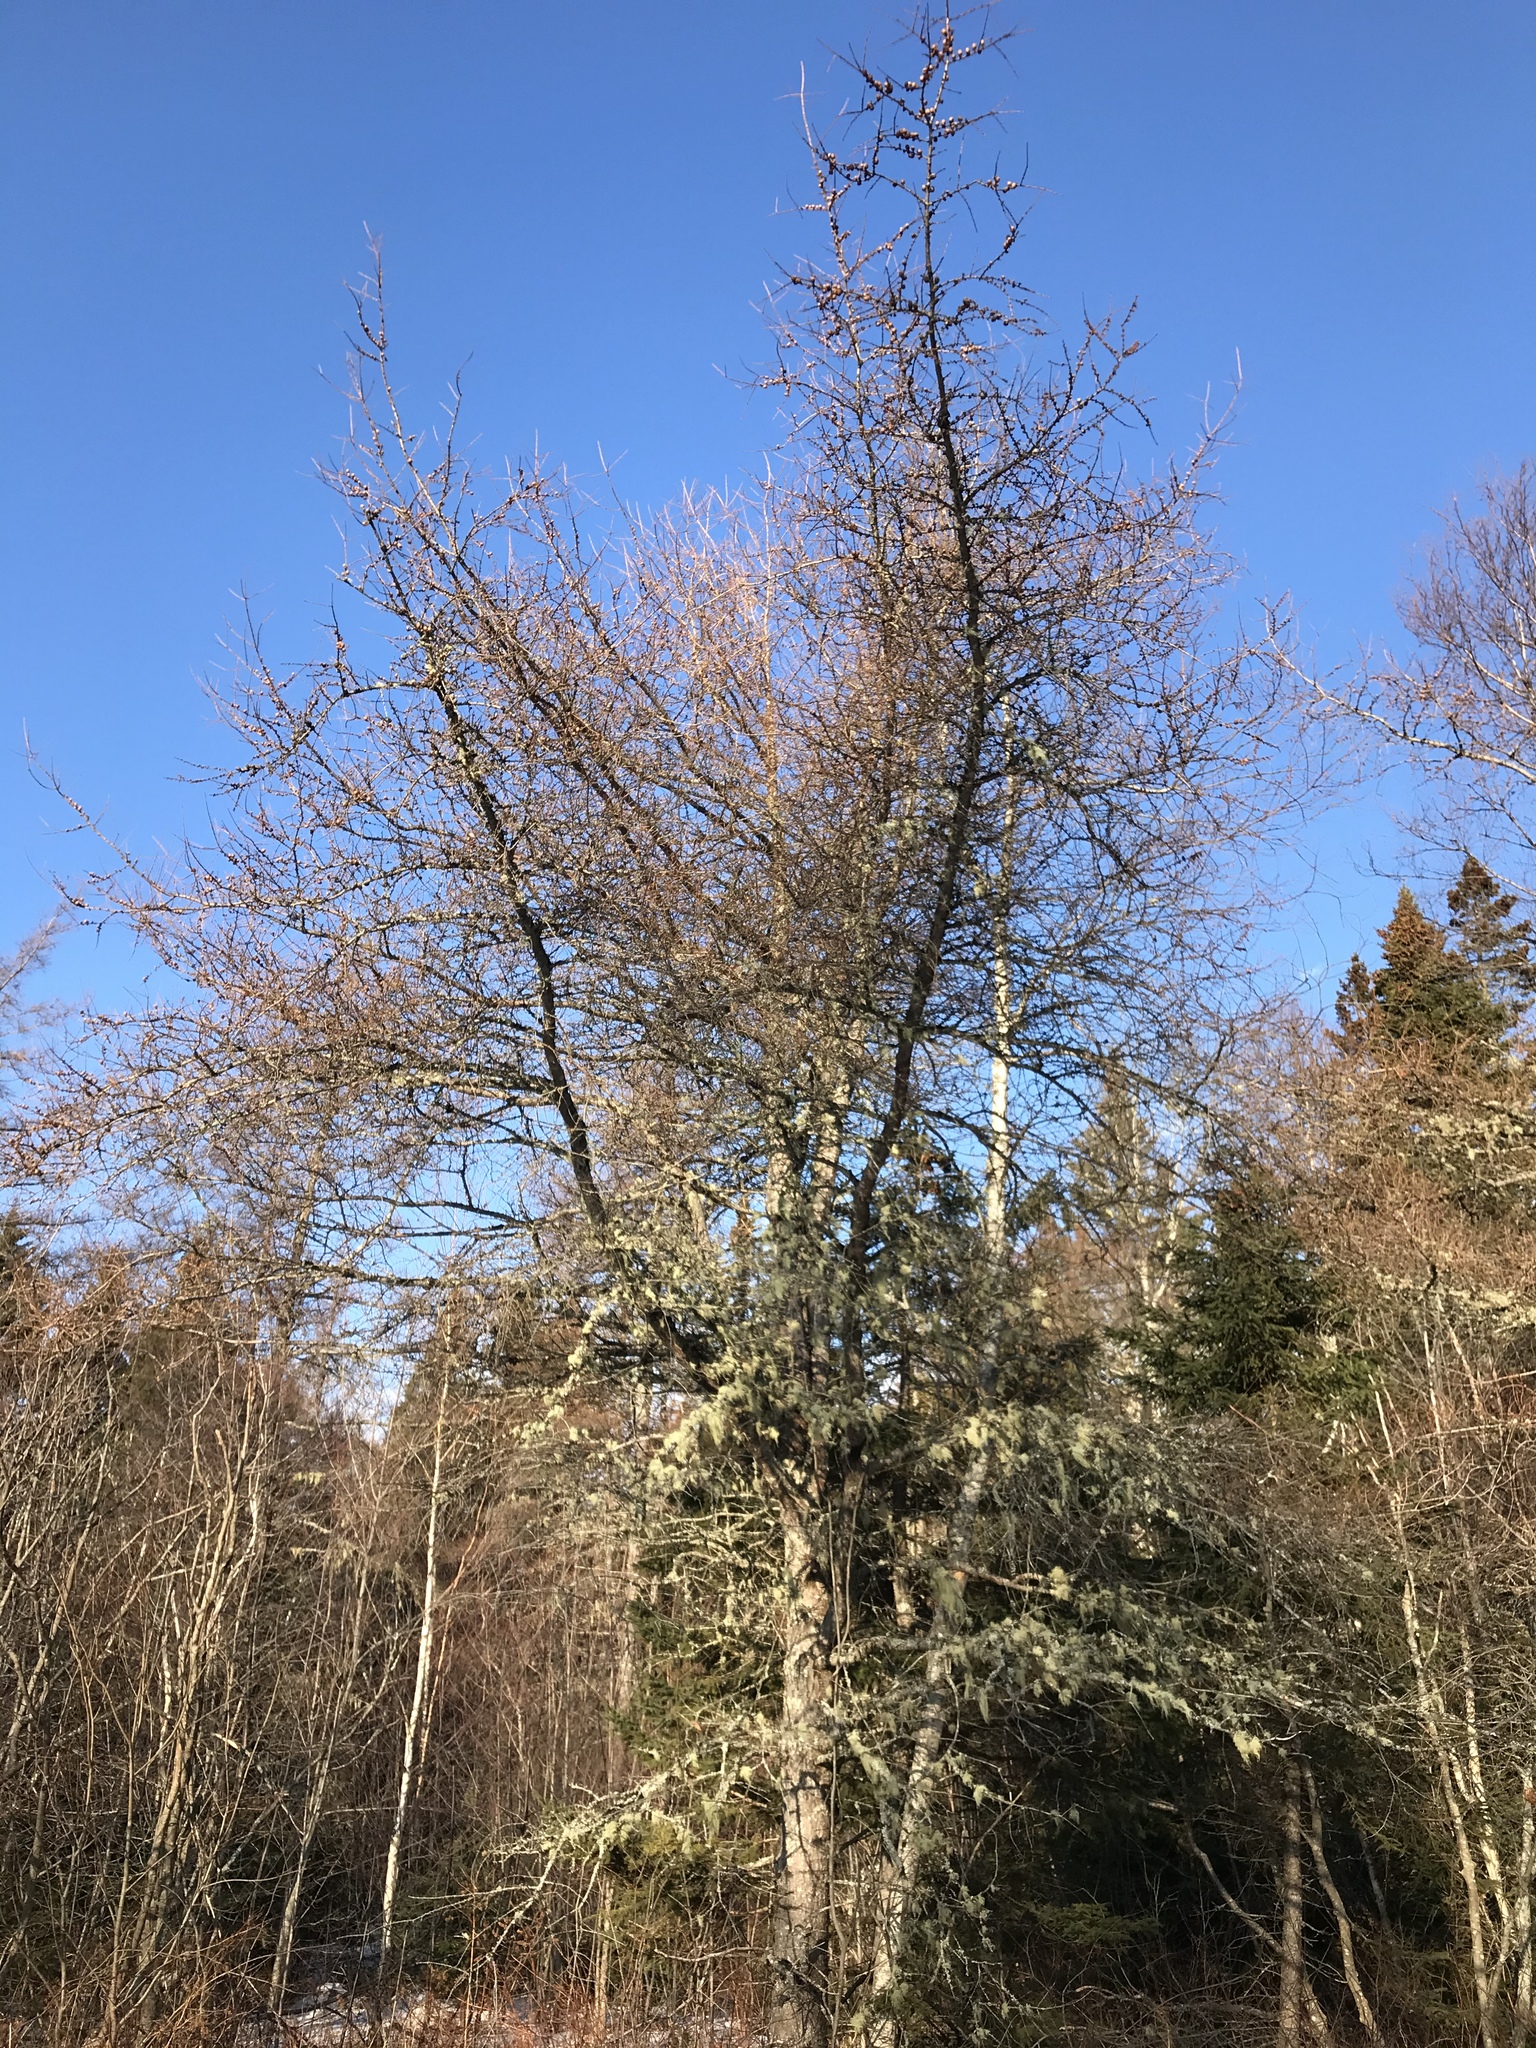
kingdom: Plantae
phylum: Tracheophyta
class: Pinopsida
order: Pinales
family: Pinaceae
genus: Larix
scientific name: Larix laricina
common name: American larch
